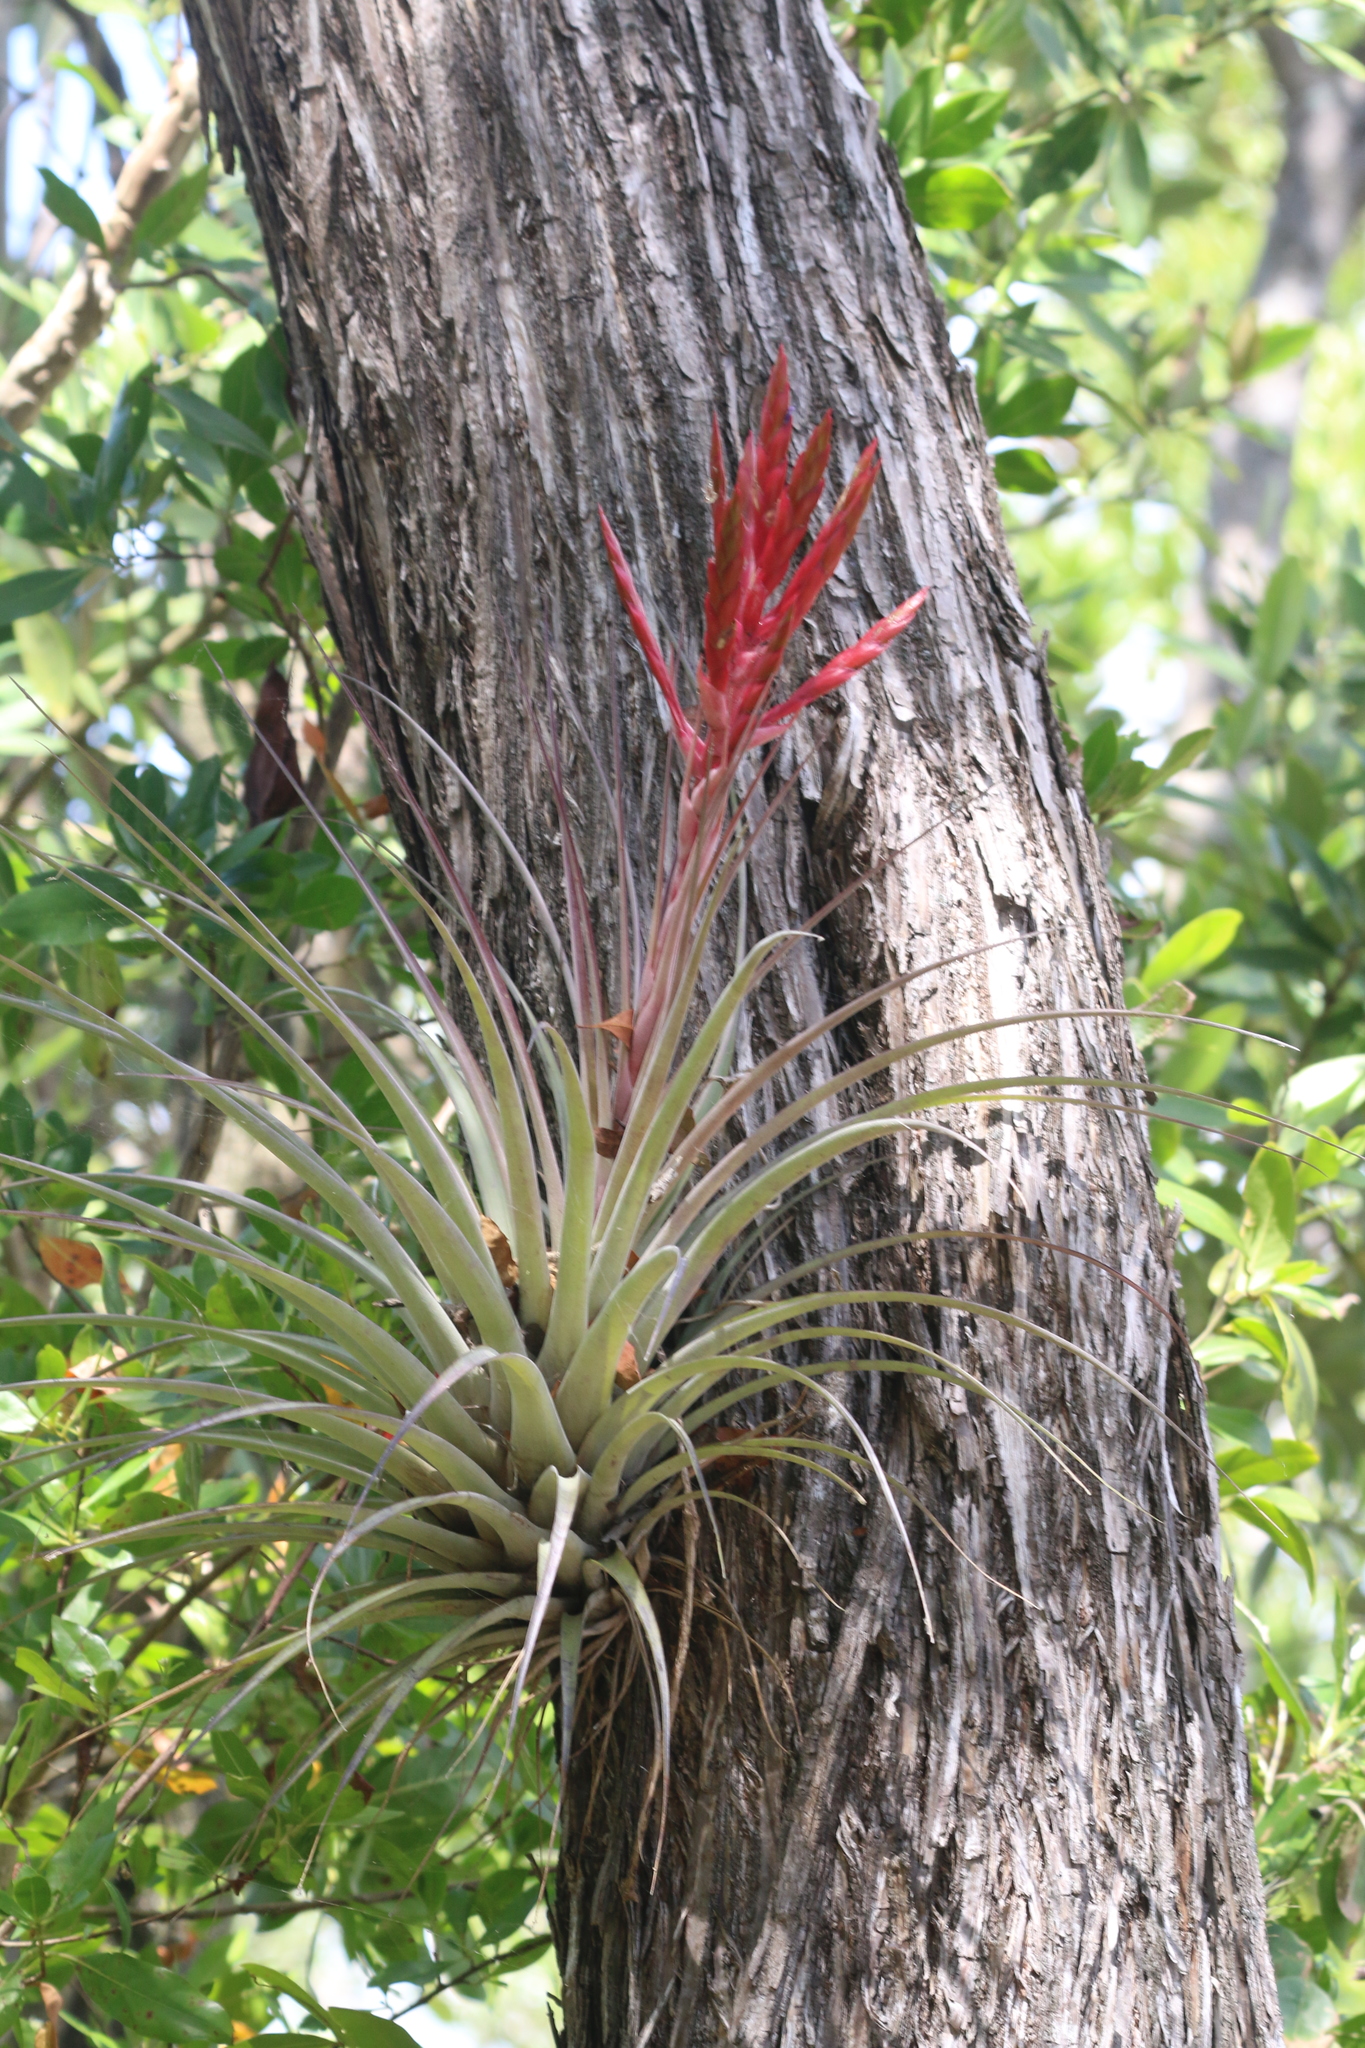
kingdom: Plantae
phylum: Tracheophyta
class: Liliopsida
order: Poales
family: Bromeliaceae
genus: Tillandsia
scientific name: Tillandsia fasciculata
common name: Giant airplant
